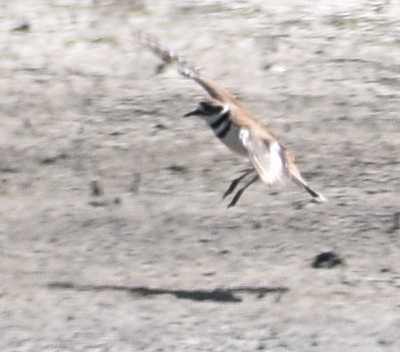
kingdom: Animalia
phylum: Chordata
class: Aves
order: Charadriiformes
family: Charadriidae
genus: Charadrius
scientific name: Charadrius vociferus
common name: Killdeer
